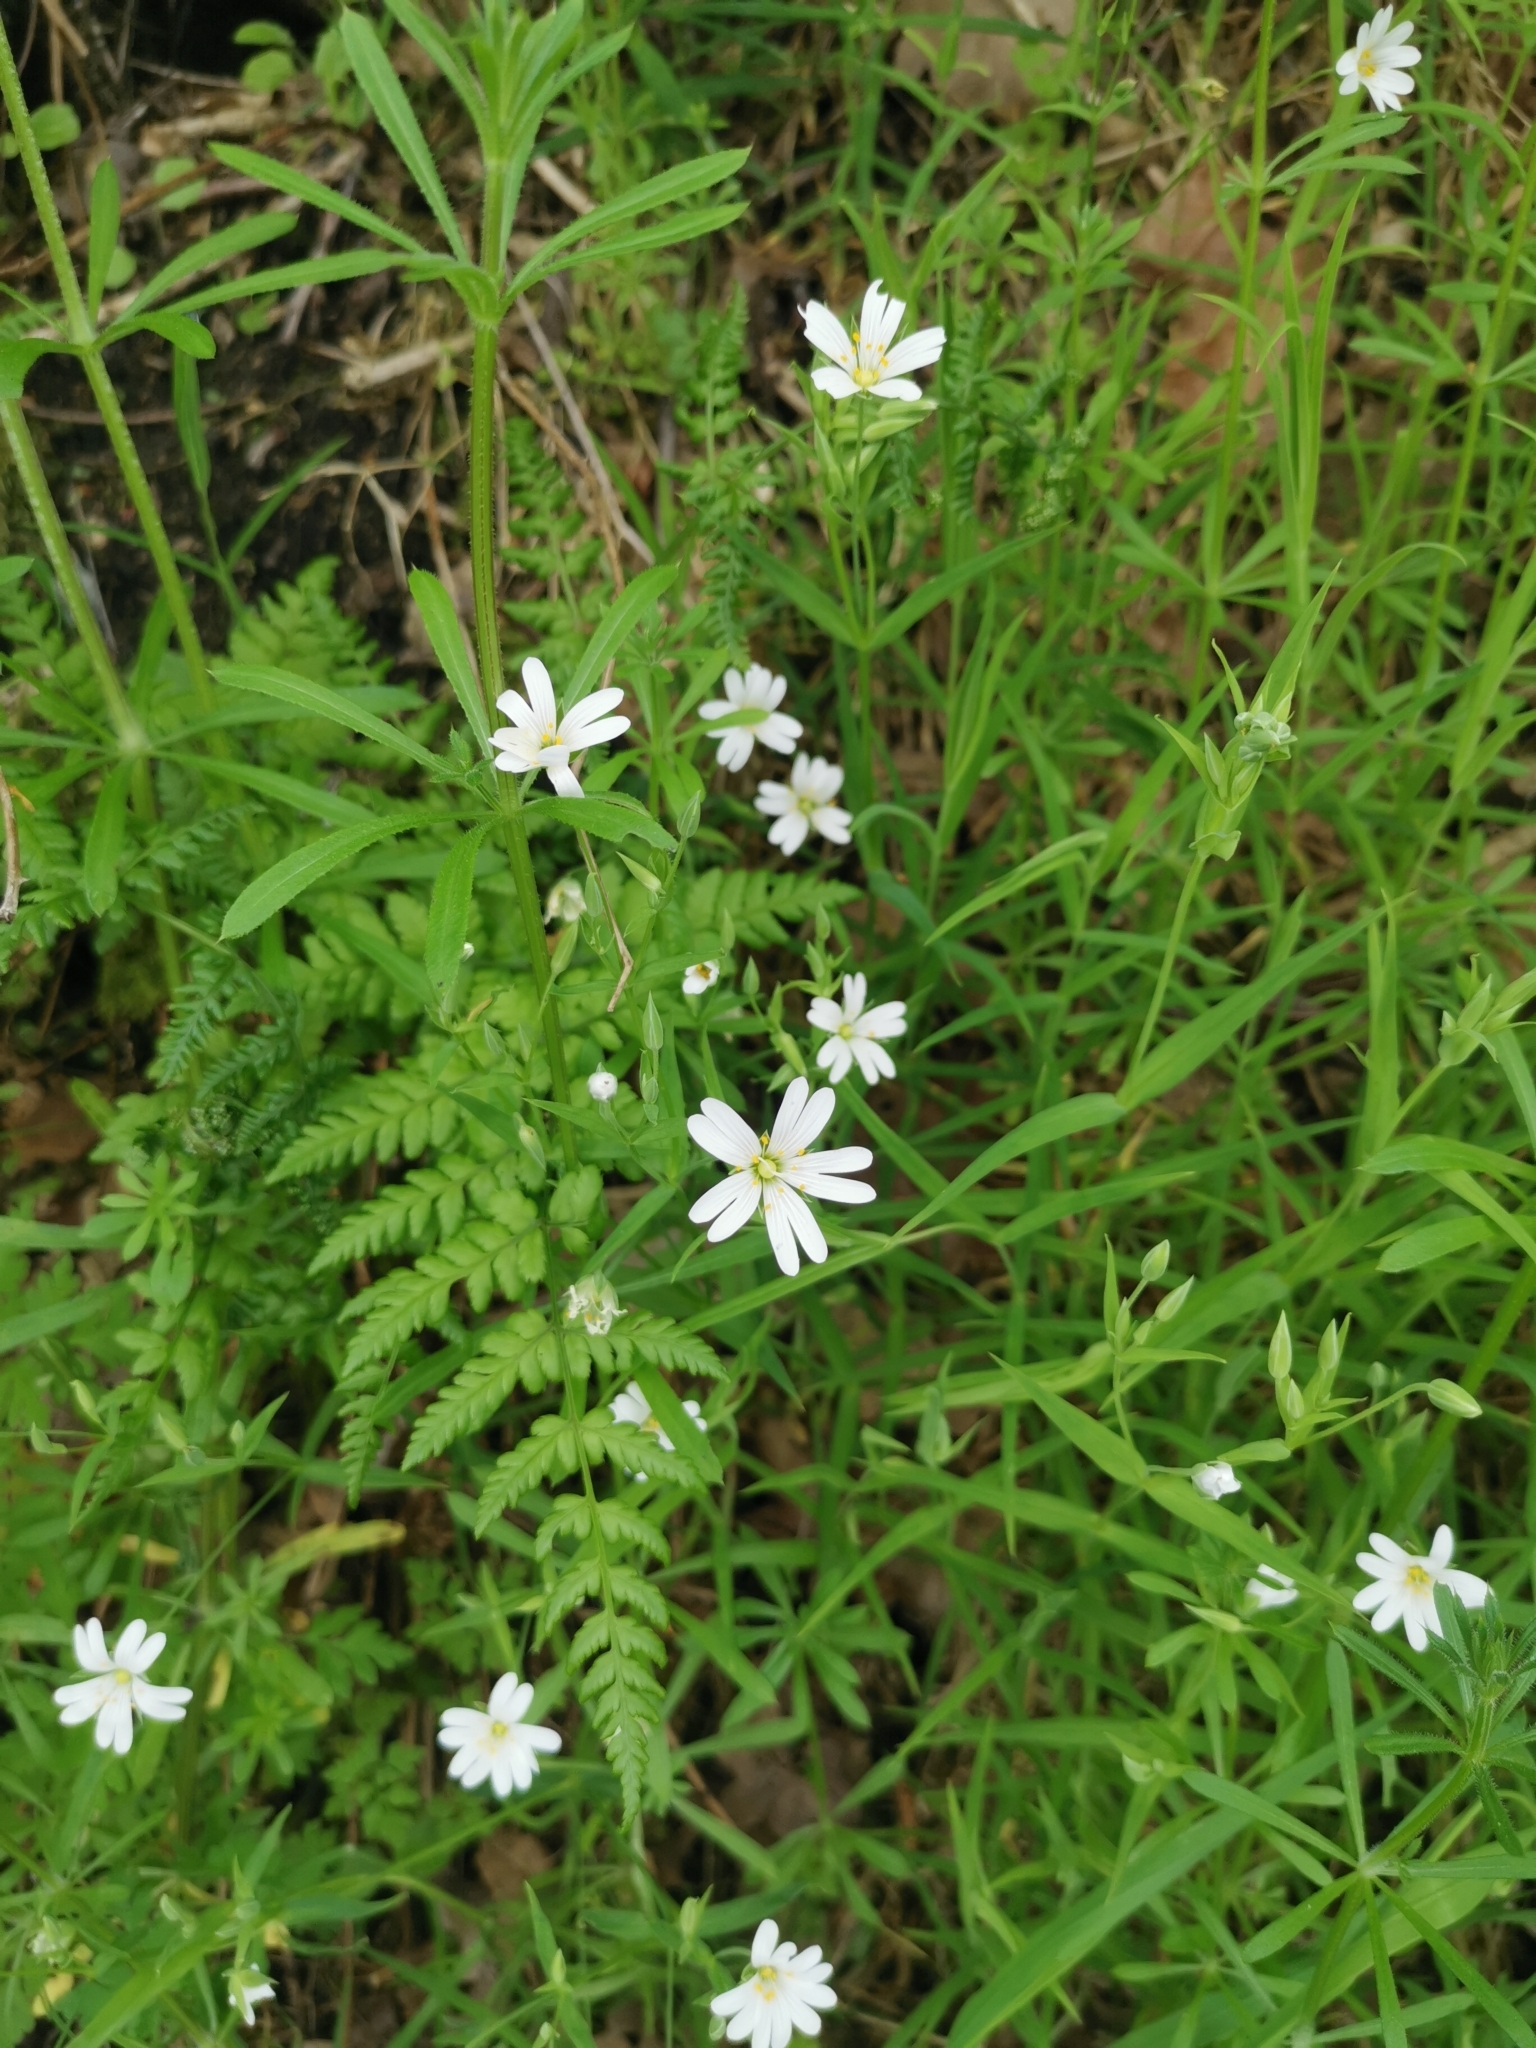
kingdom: Plantae
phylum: Tracheophyta
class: Magnoliopsida
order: Caryophyllales
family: Caryophyllaceae
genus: Rabelera
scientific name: Rabelera holostea
